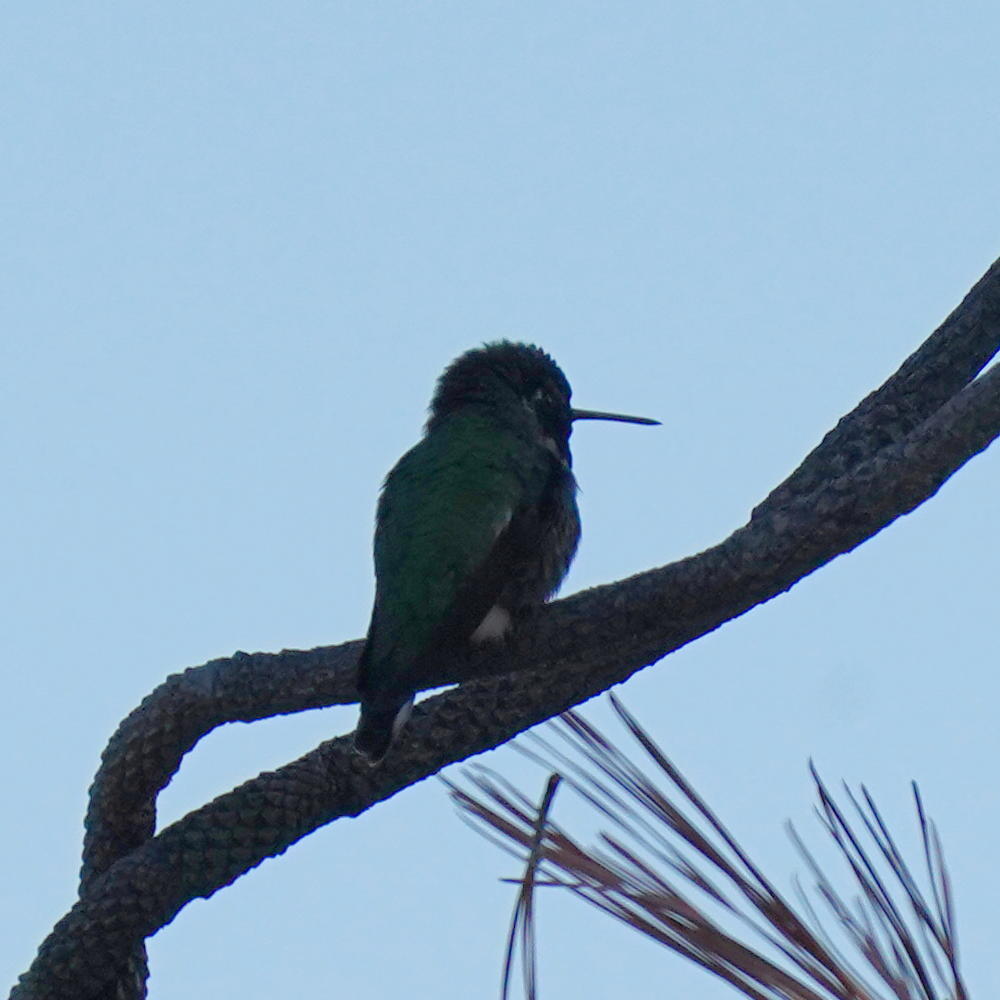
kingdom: Animalia
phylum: Chordata
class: Aves
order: Apodiformes
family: Trochilidae
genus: Calypte
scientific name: Calypte anna
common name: Anna's hummingbird
